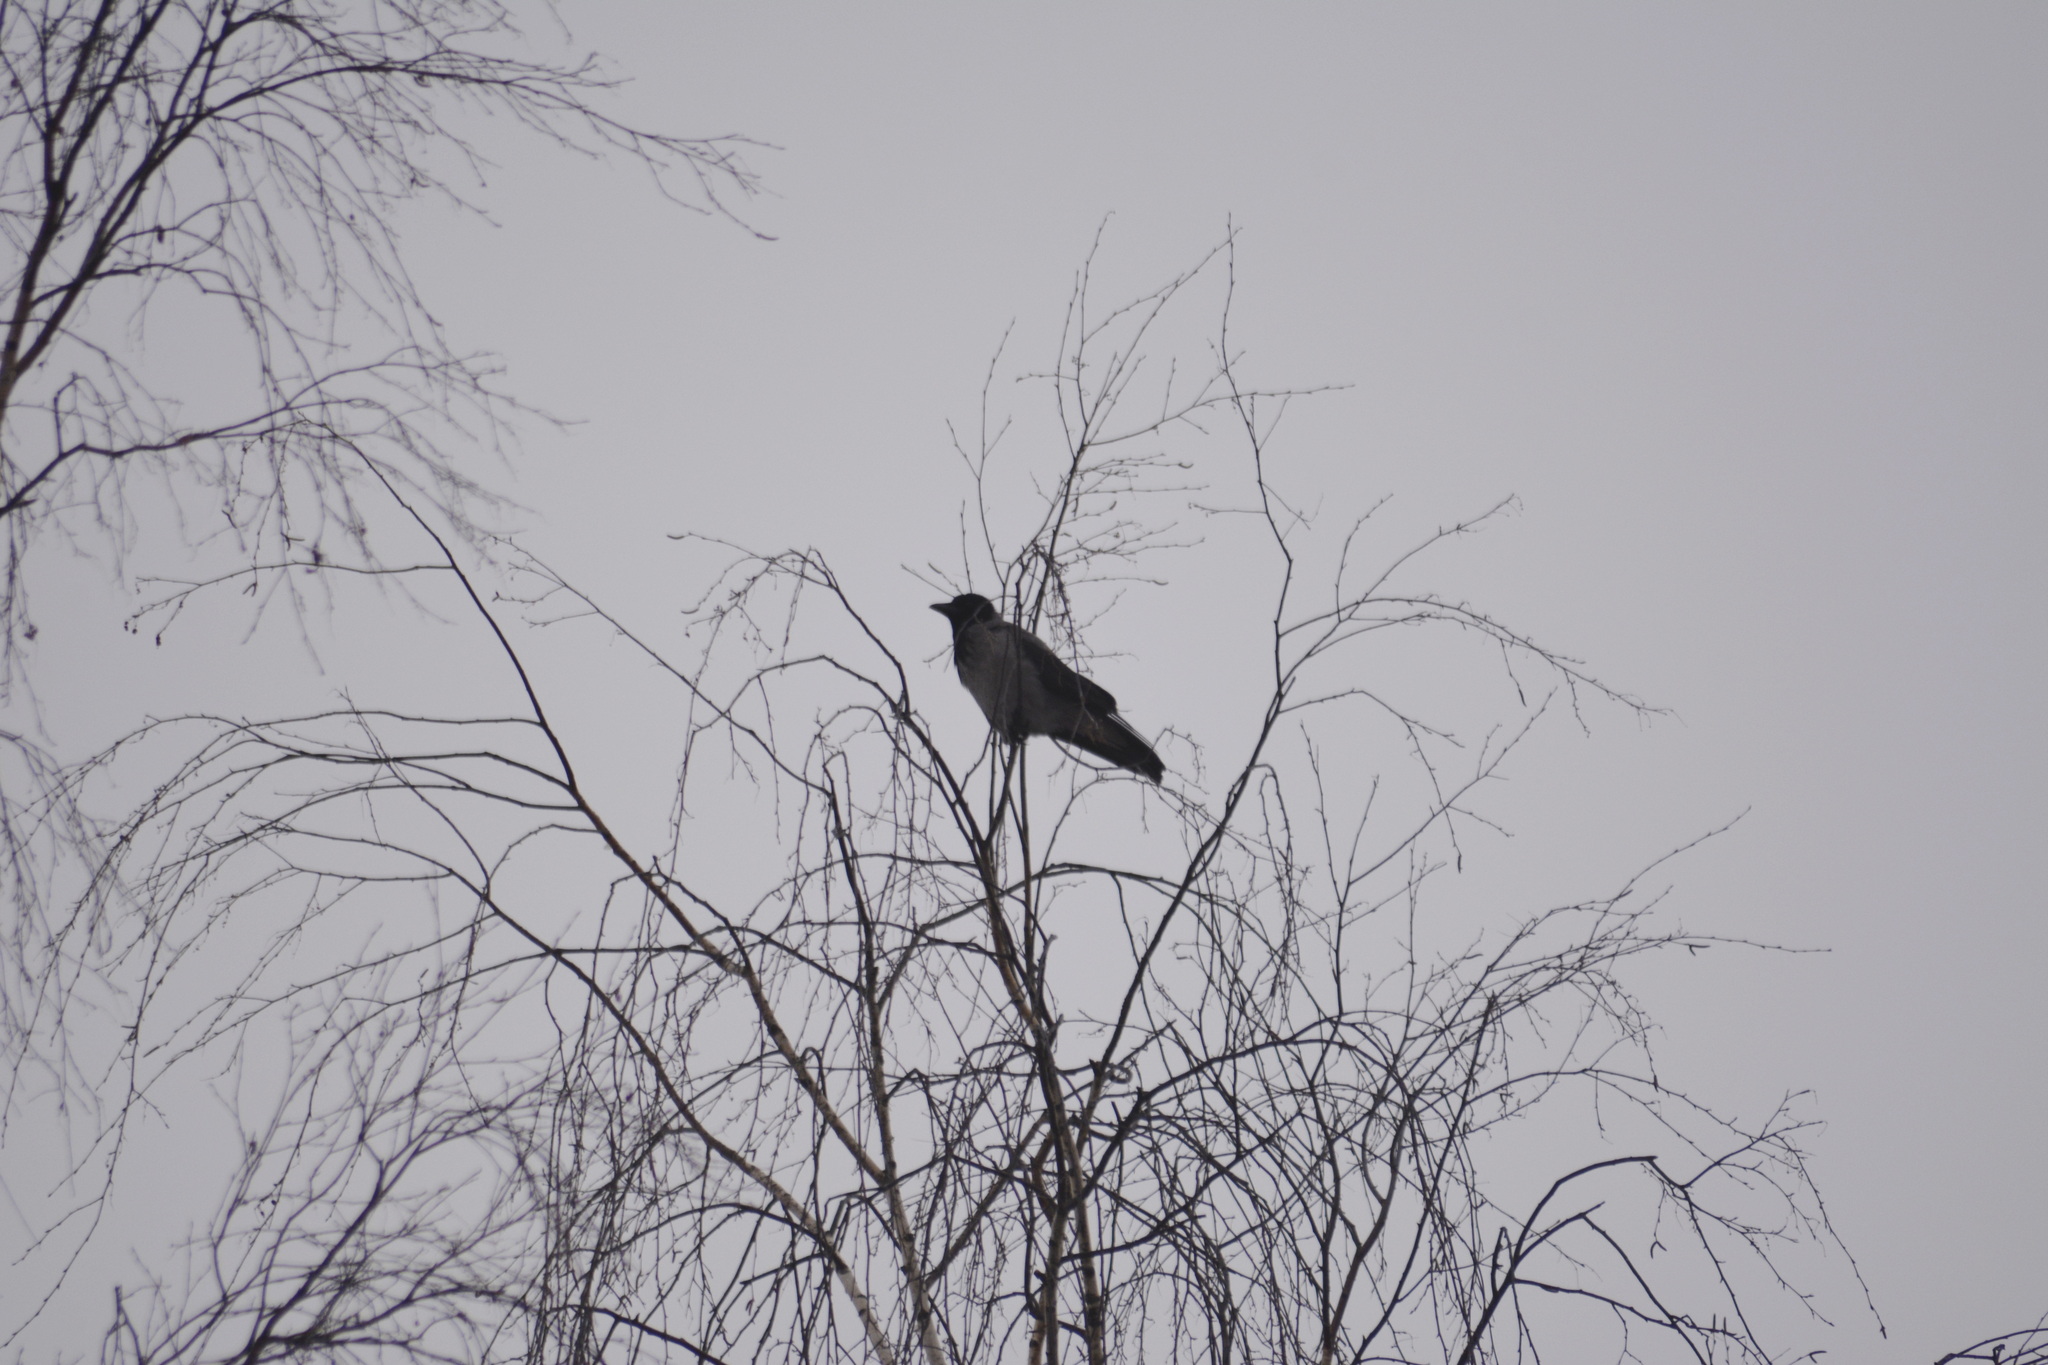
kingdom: Animalia
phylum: Chordata
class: Aves
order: Passeriformes
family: Corvidae
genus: Corvus
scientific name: Corvus cornix
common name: Hooded crow
